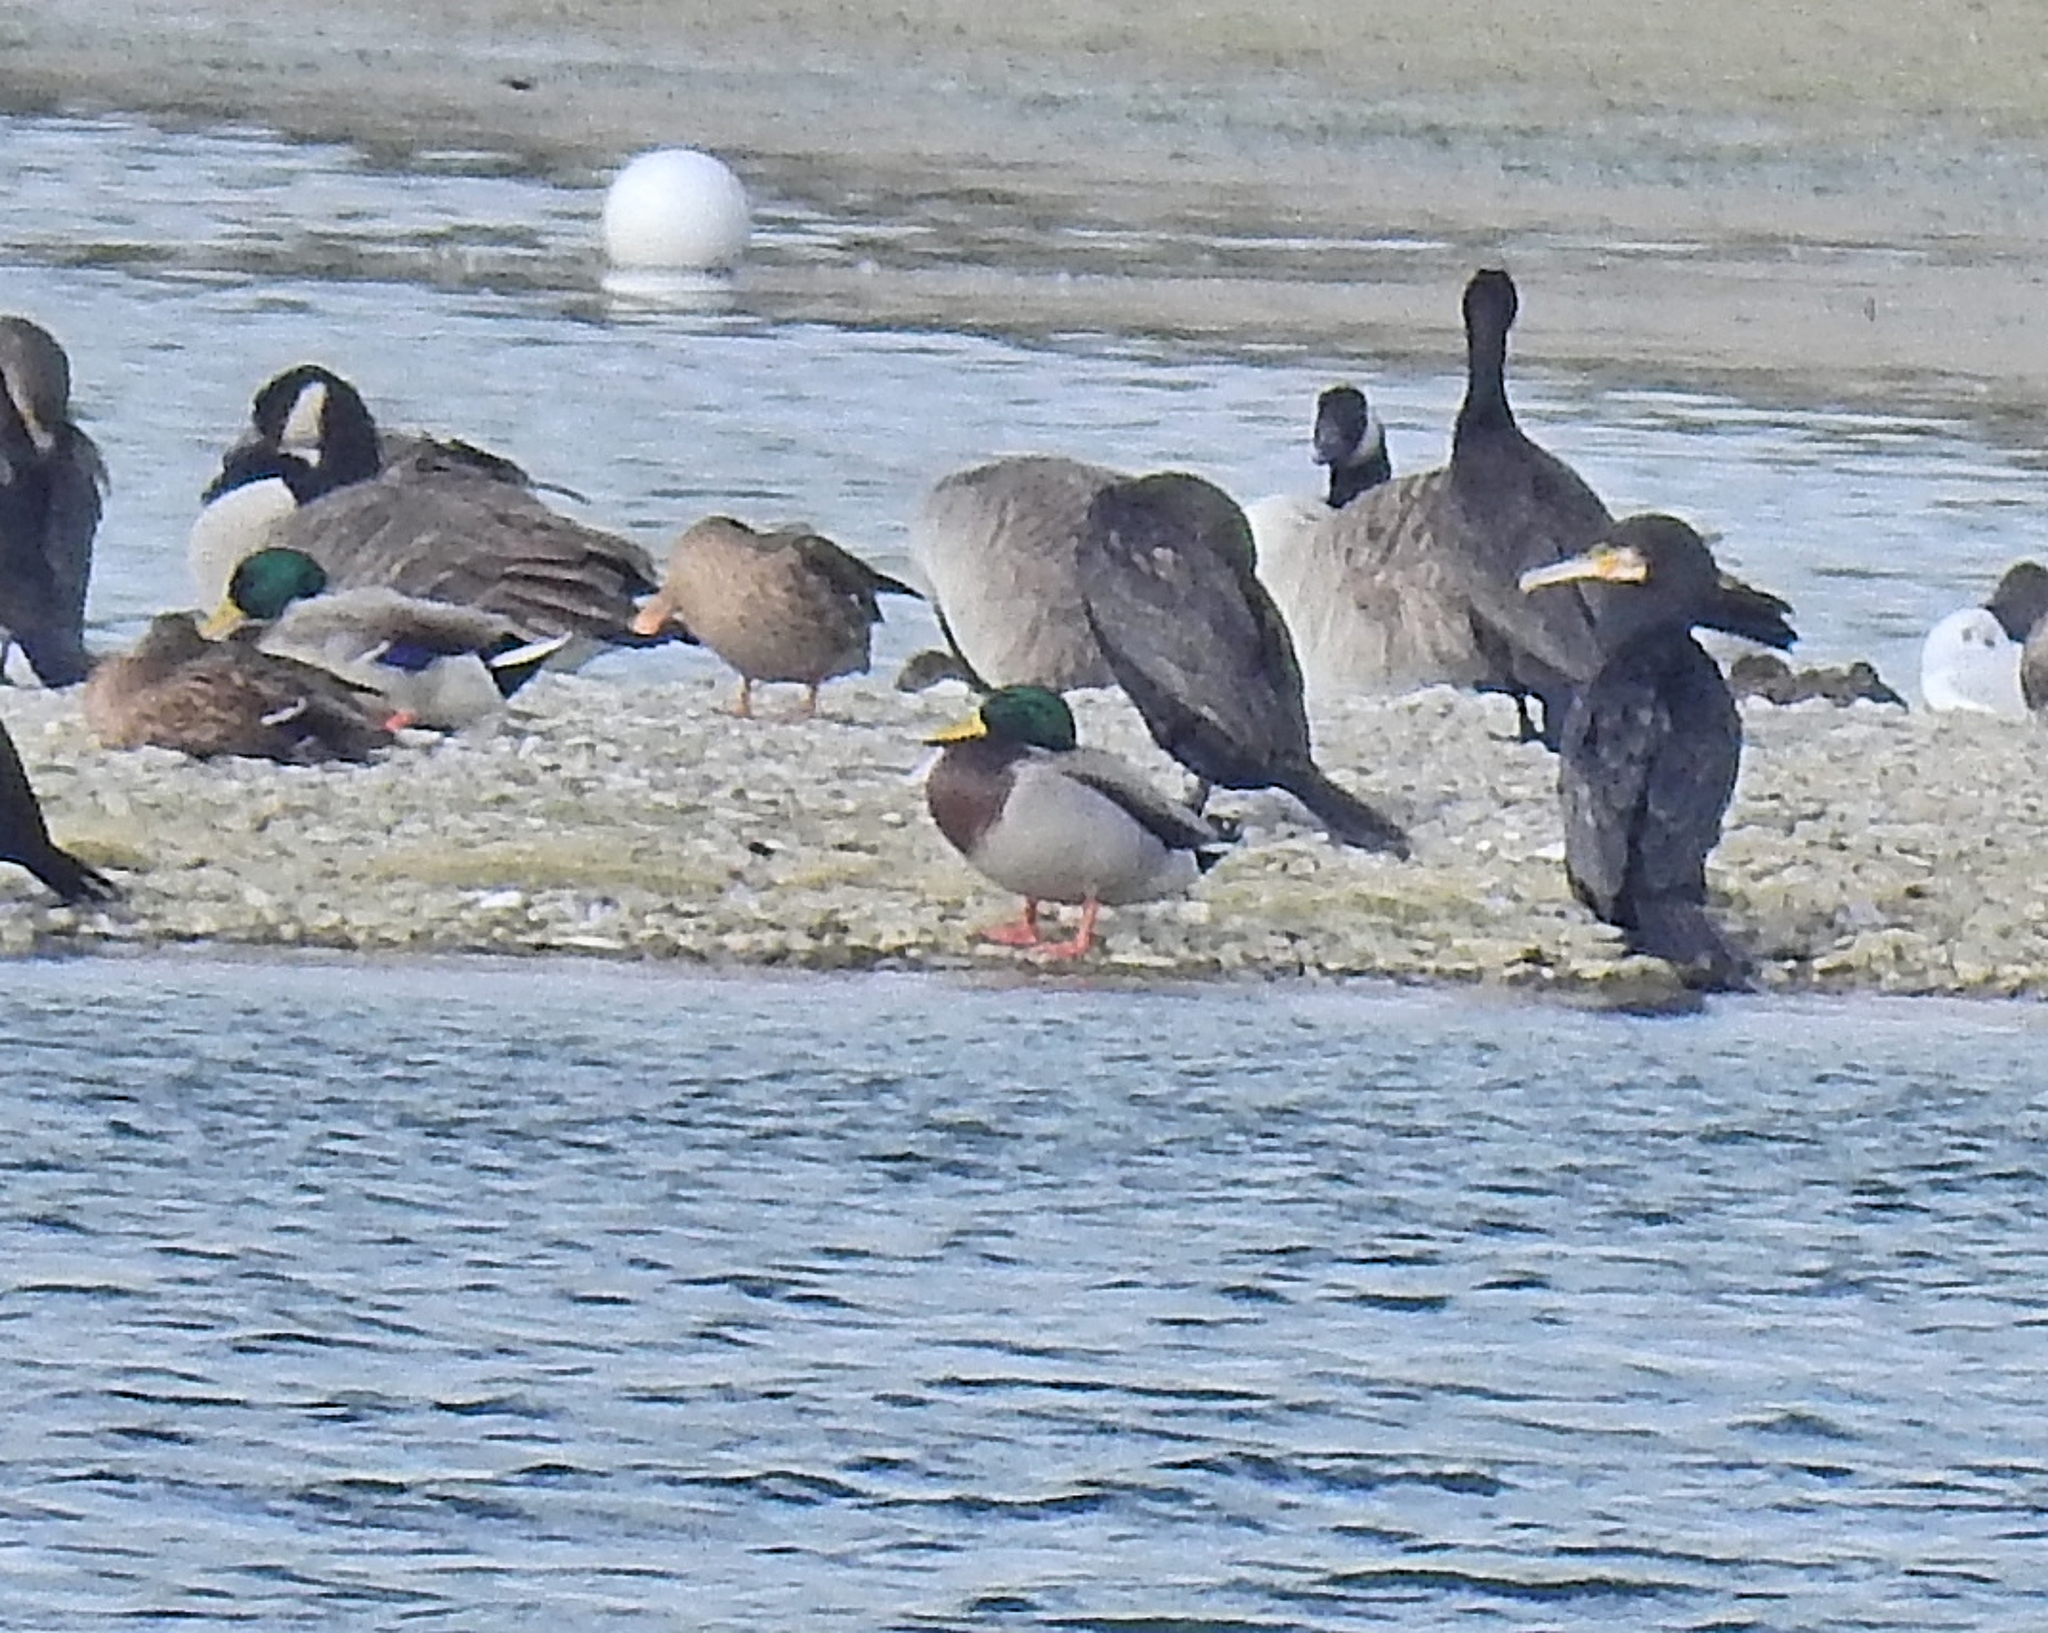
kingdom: Animalia
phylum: Chordata
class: Aves
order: Anseriformes
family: Anatidae
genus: Anas
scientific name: Anas platyrhynchos
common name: Mallard
